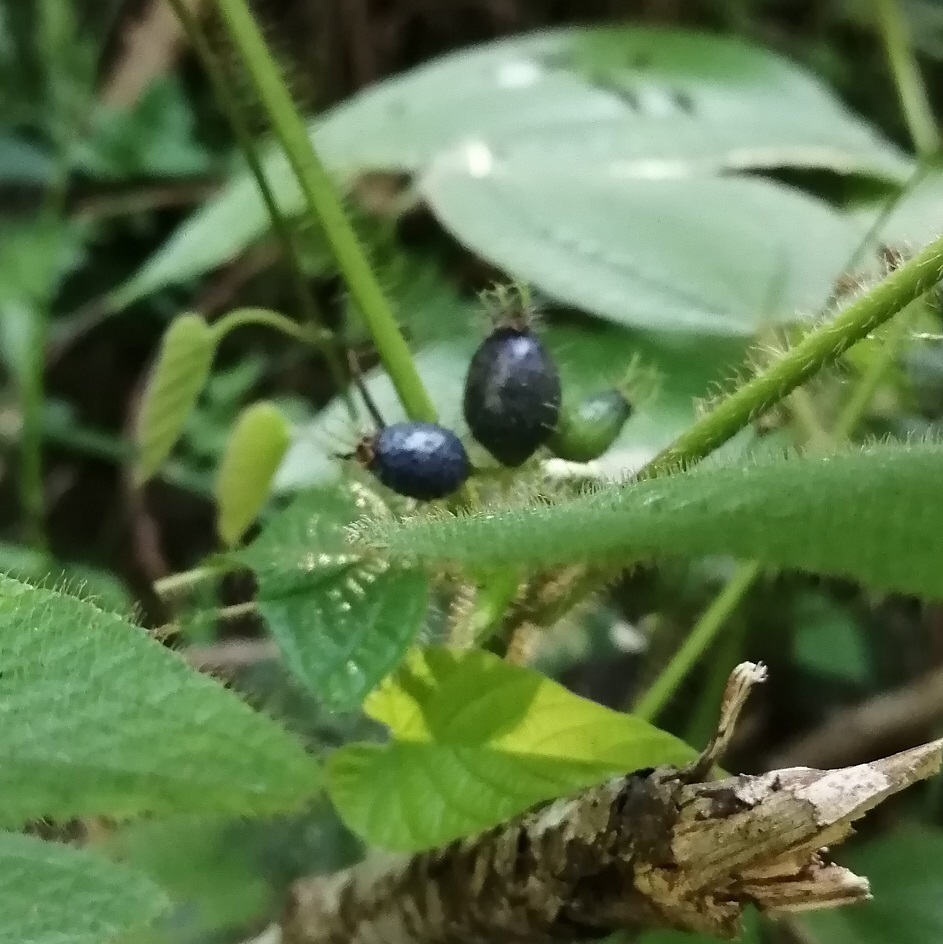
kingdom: Plantae
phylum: Tracheophyta
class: Magnoliopsida
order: Myrtales
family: Melastomataceae
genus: Miconia
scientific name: Miconia crenata
